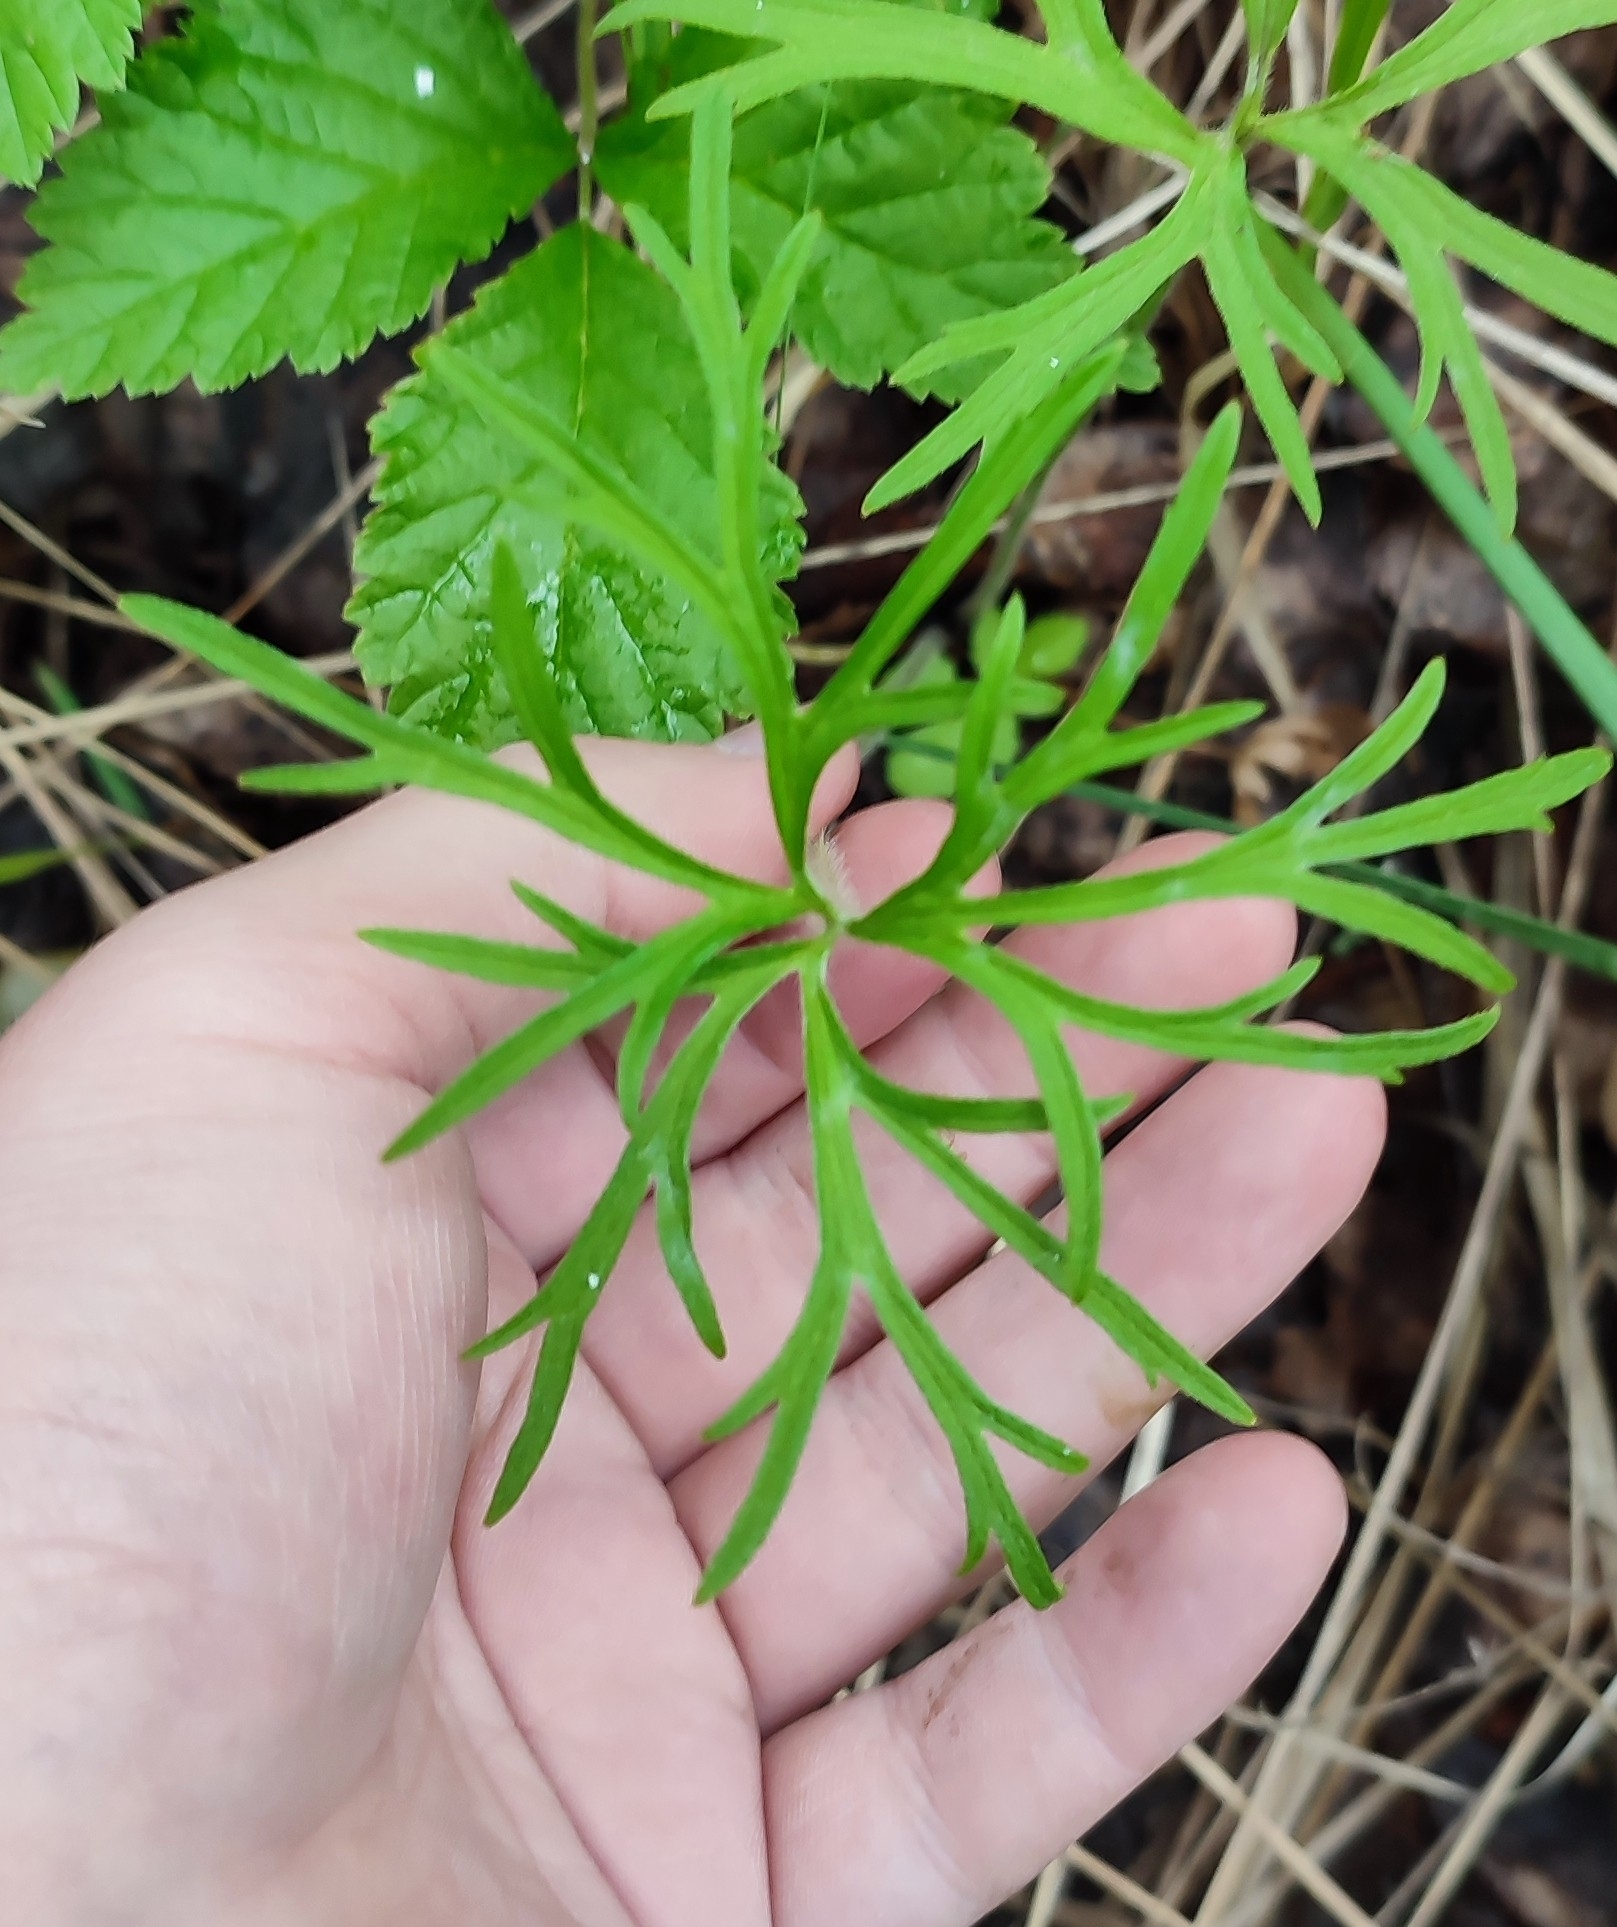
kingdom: Plantae
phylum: Tracheophyta
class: Magnoliopsida
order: Ranunculales
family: Ranunculaceae
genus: Ranunculus
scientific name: Ranunculus polyanthemos
